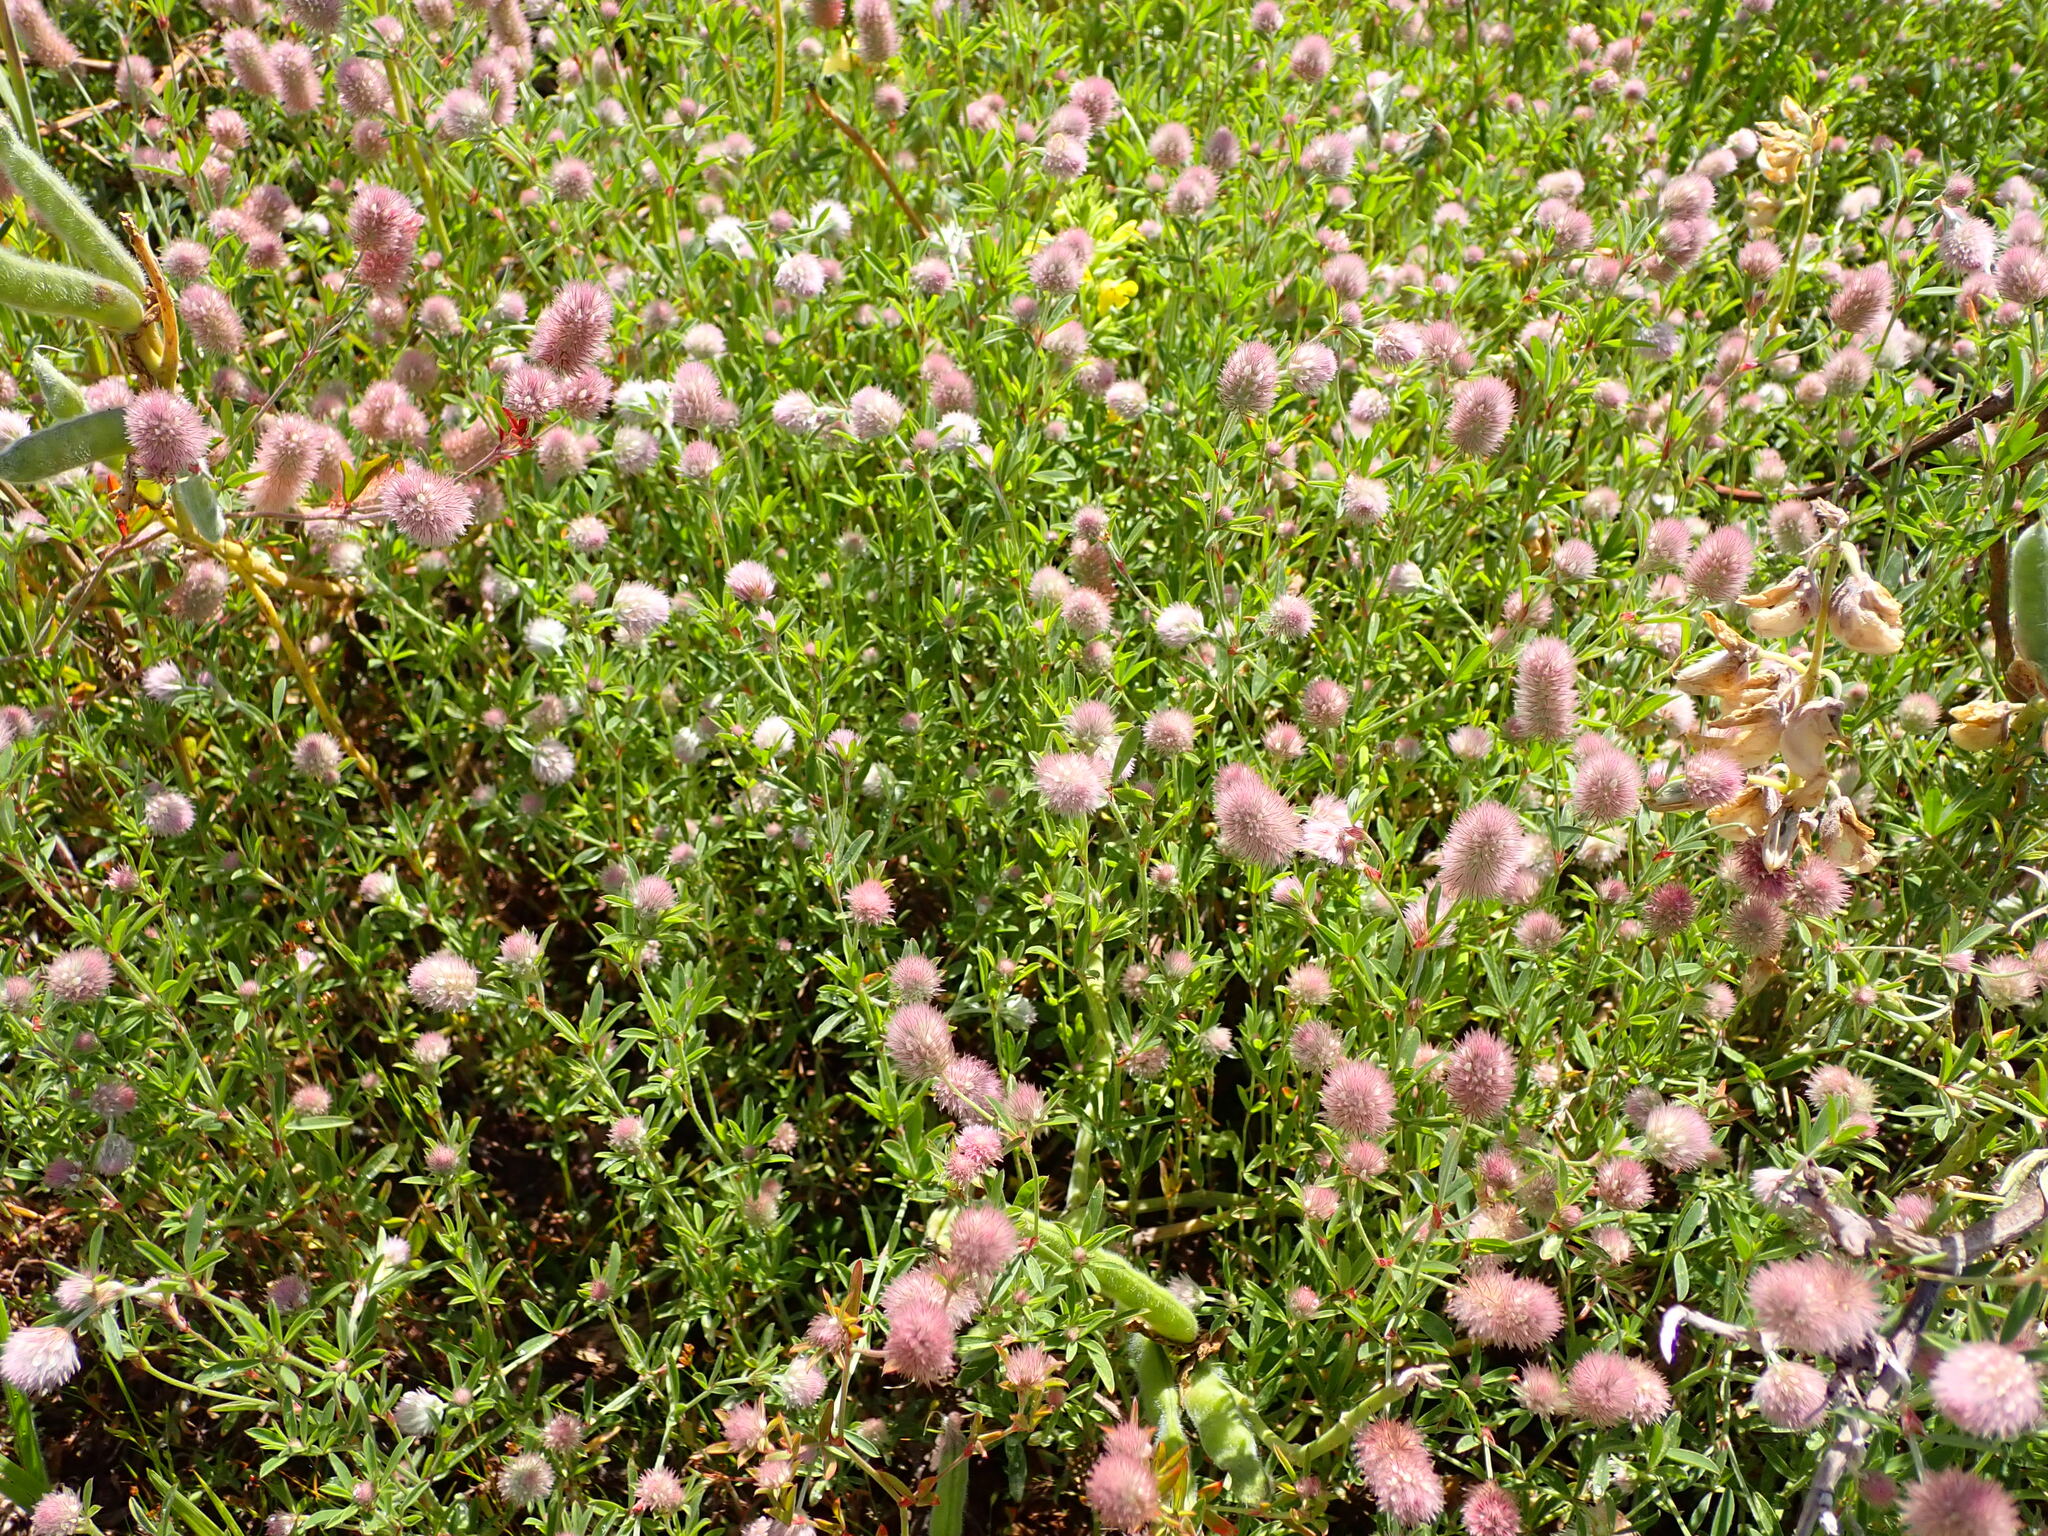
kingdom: Plantae
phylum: Tracheophyta
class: Magnoliopsida
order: Fabales
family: Fabaceae
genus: Trifolium
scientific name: Trifolium arvense
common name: Hare's-foot clover
